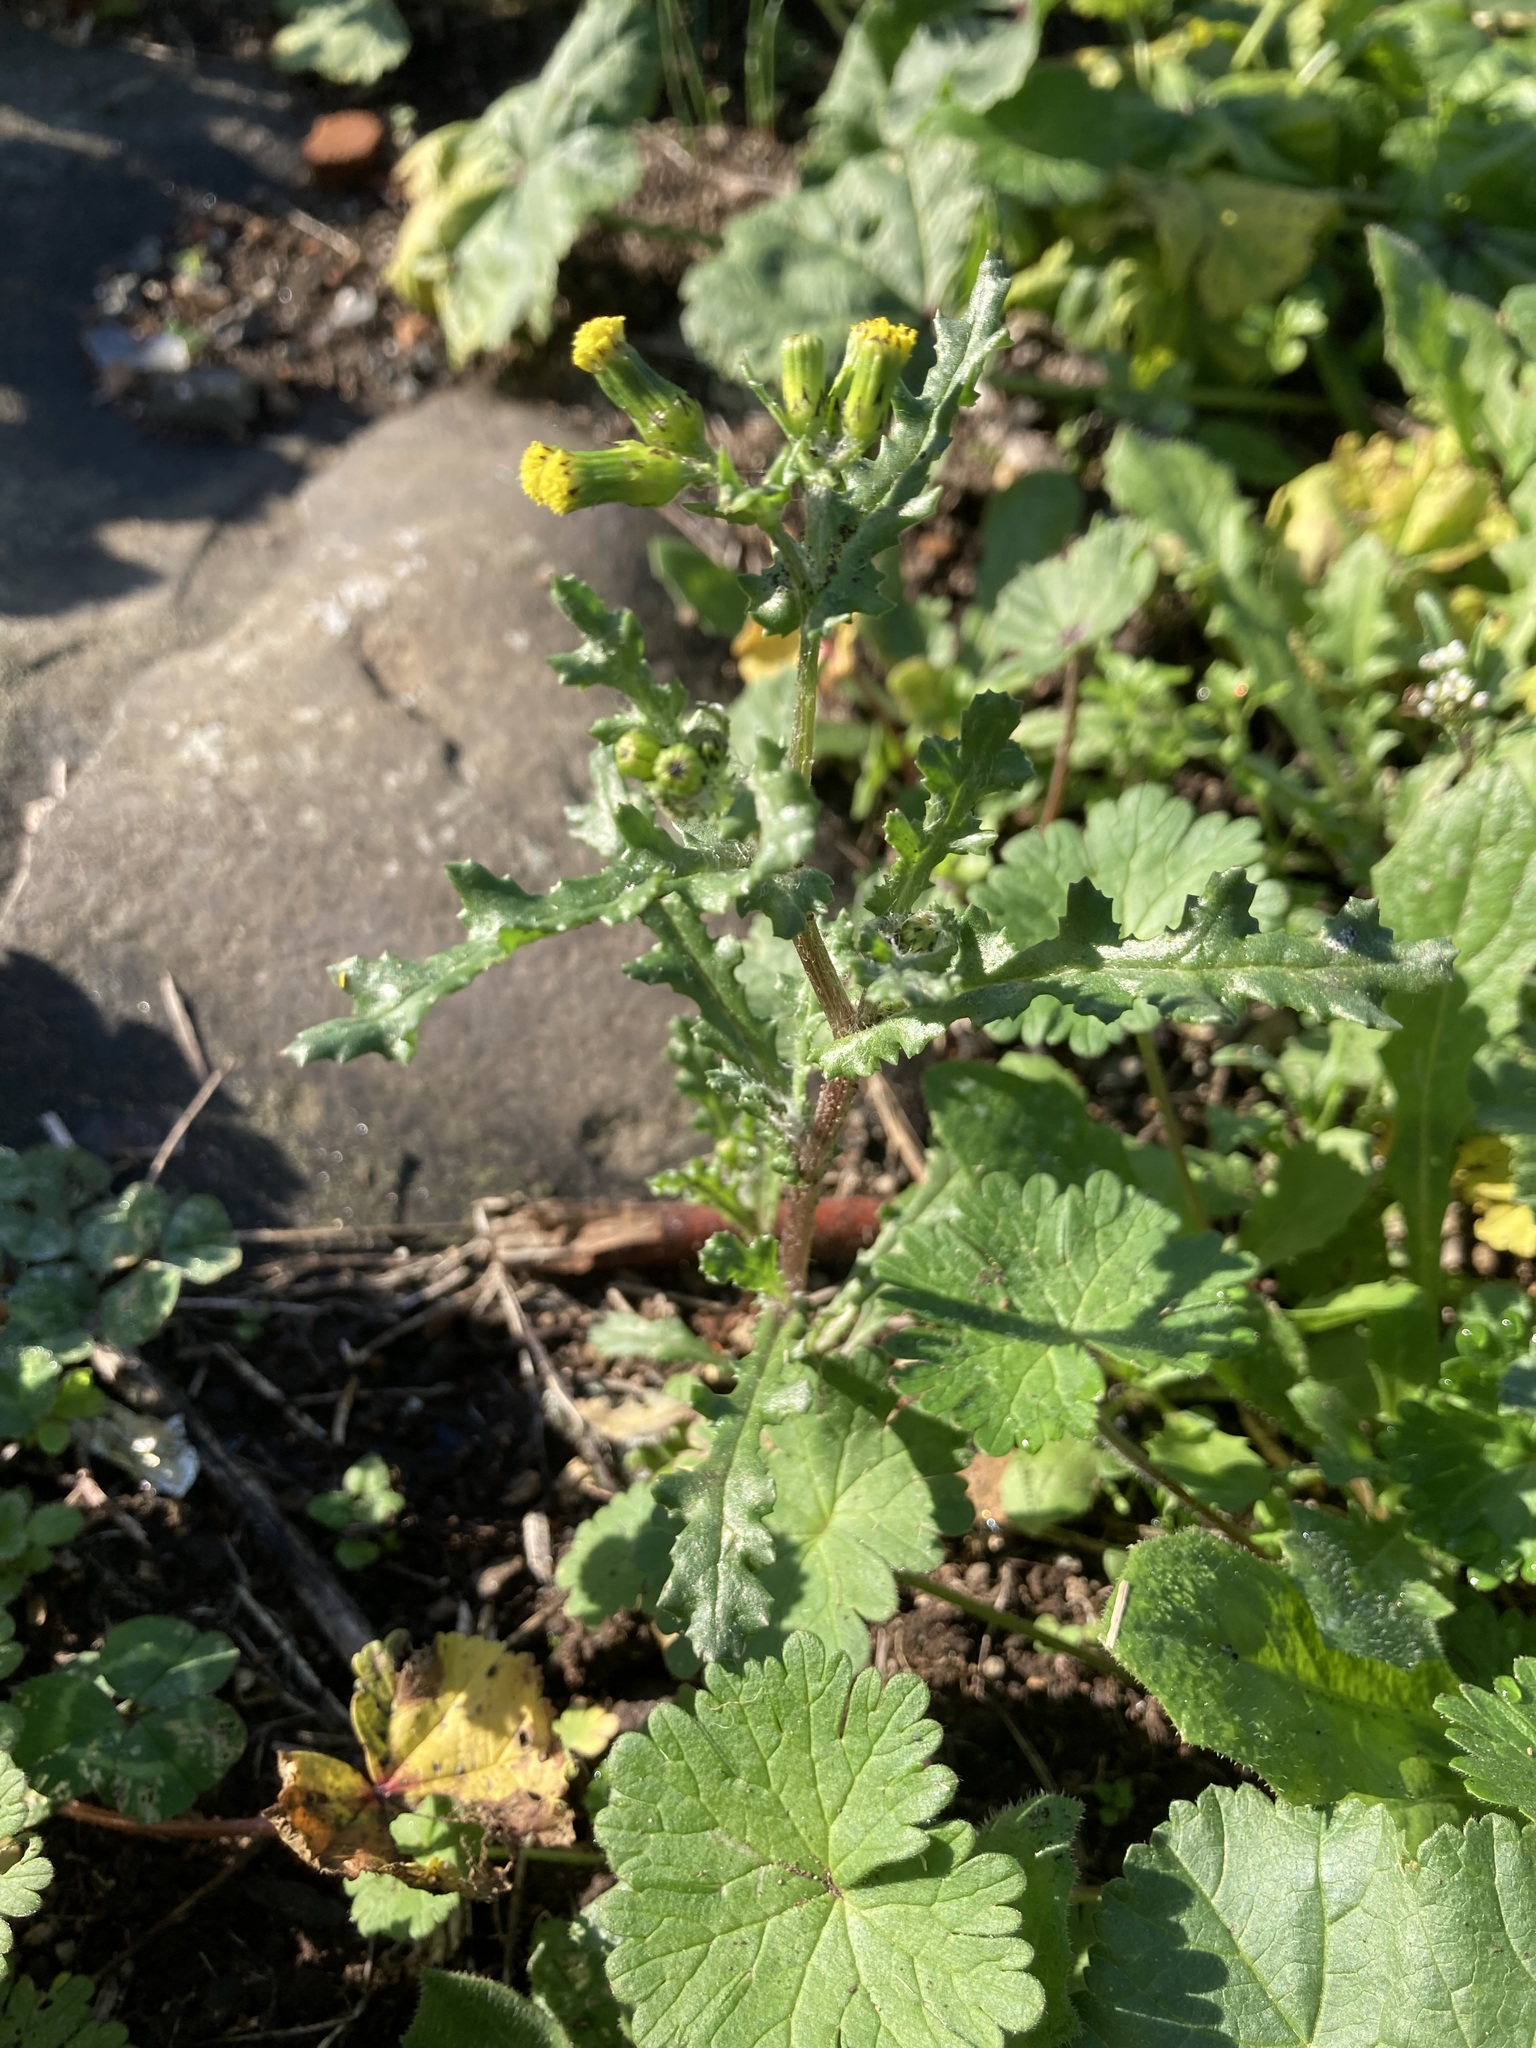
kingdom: Plantae
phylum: Tracheophyta
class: Magnoliopsida
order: Asterales
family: Asteraceae
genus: Senecio
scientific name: Senecio vulgaris
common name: Old-man-in-the-spring
